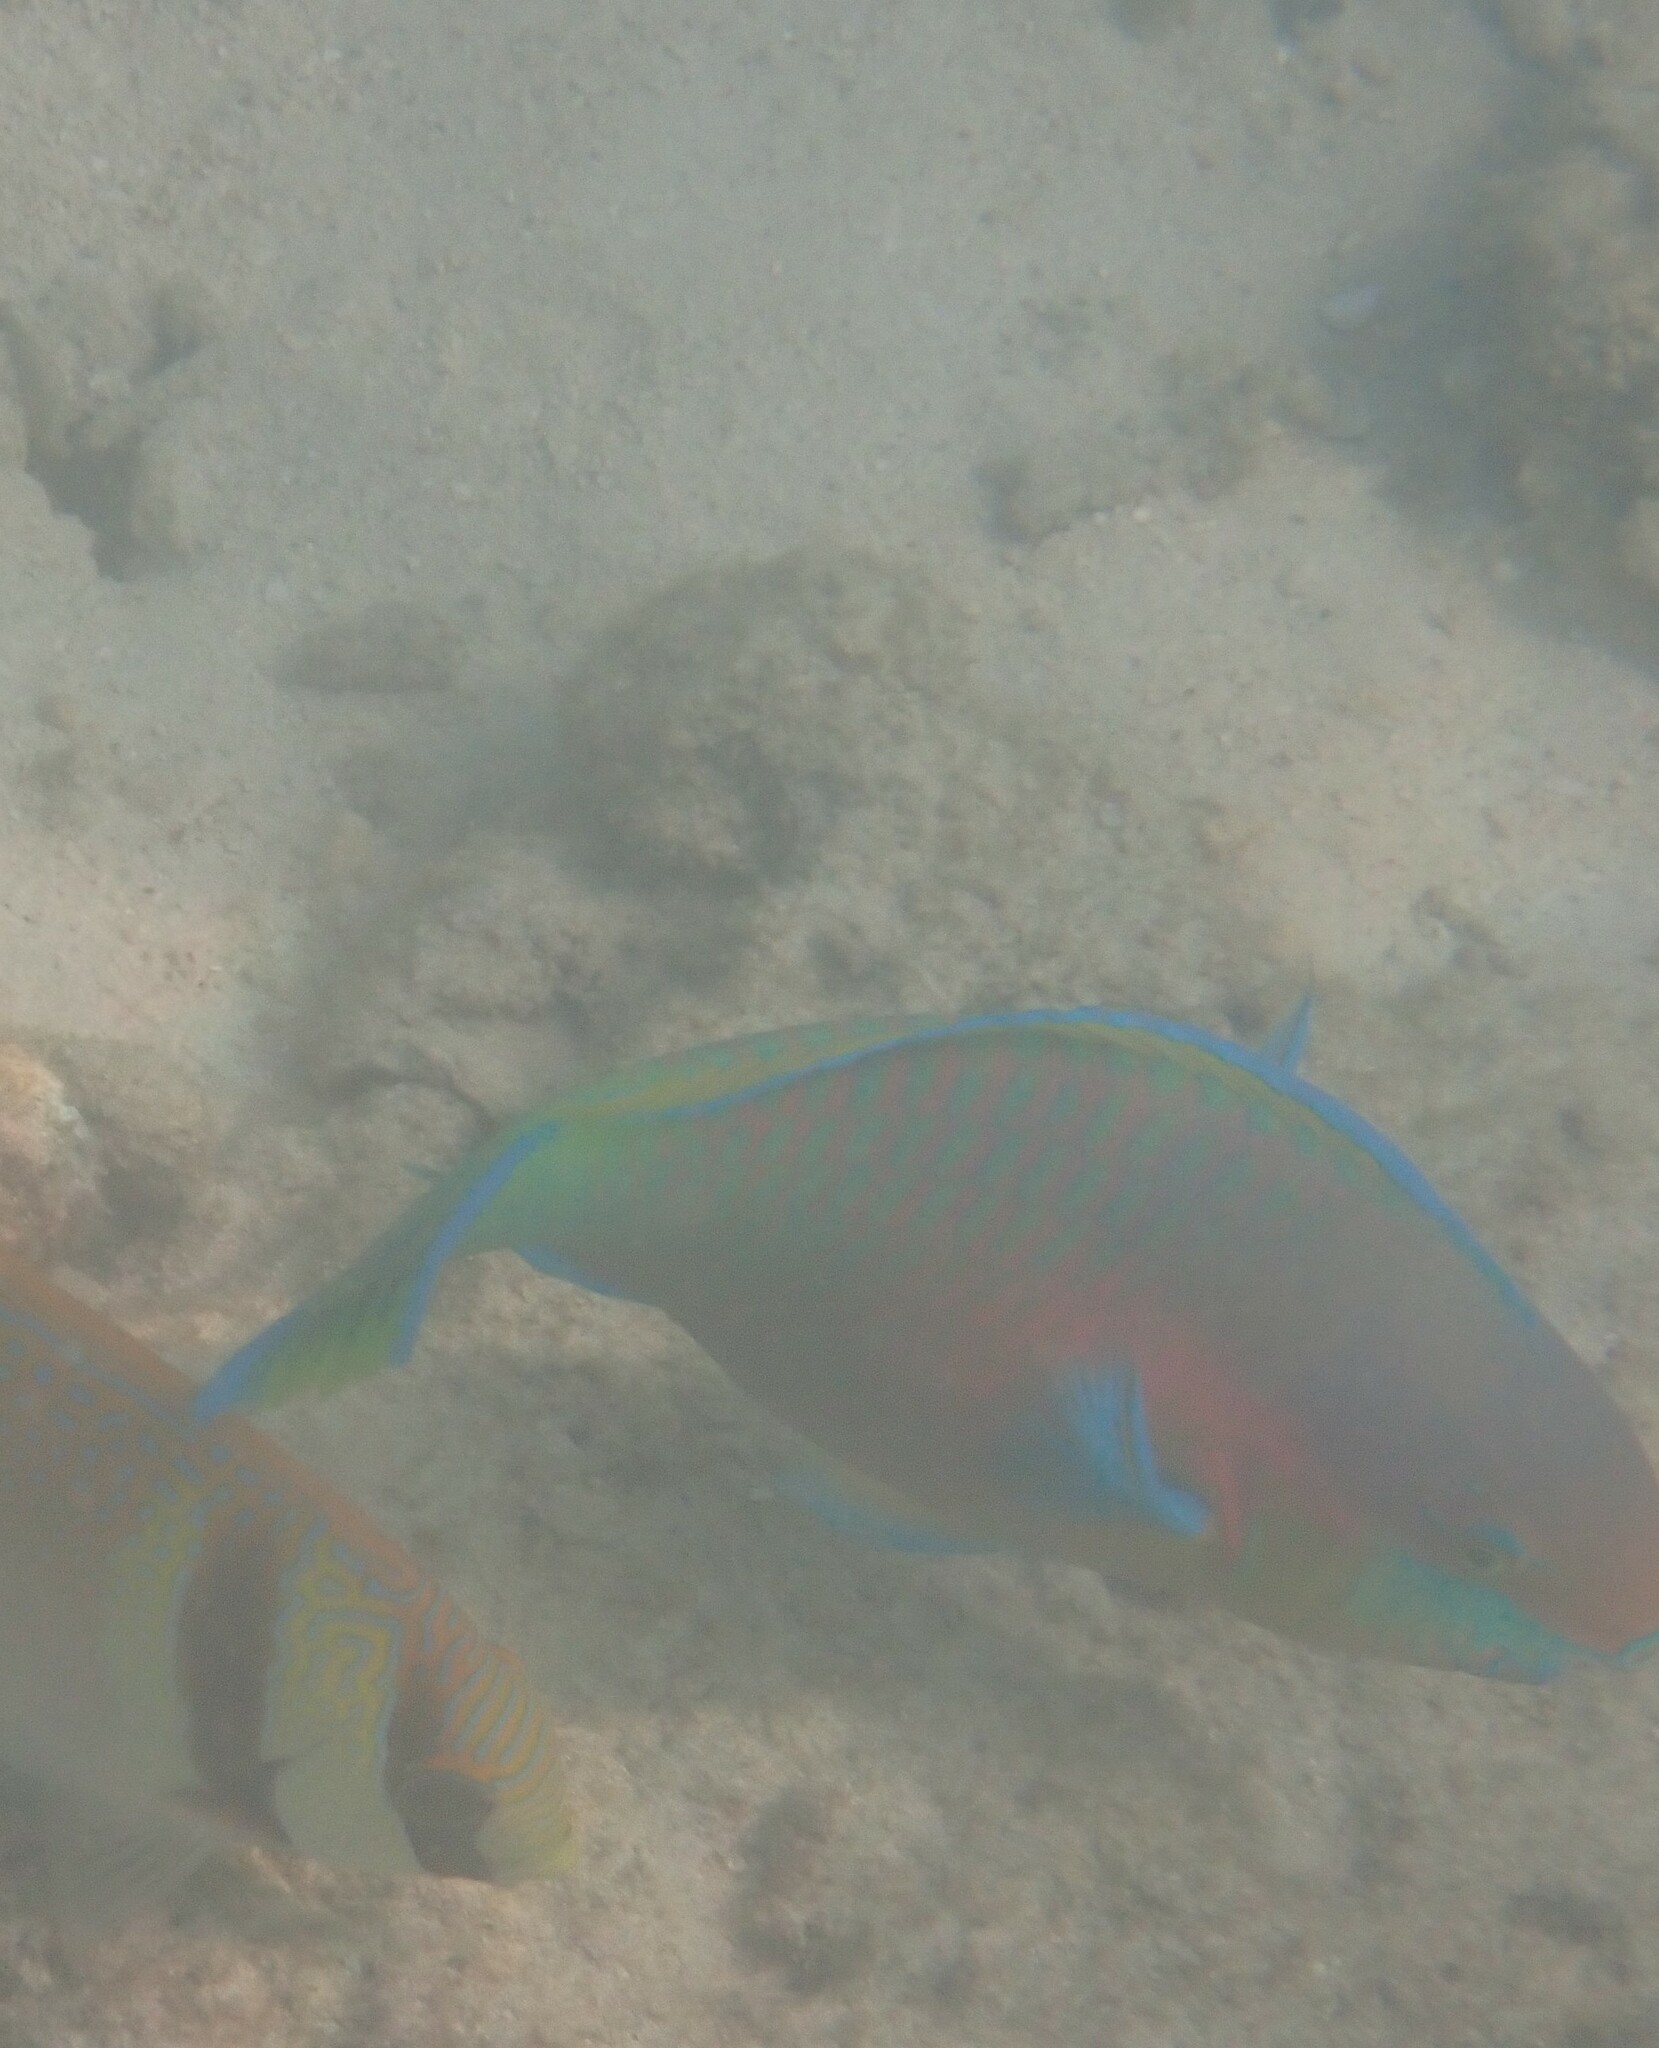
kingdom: Animalia
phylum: Chordata
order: Perciformes
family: Scaridae
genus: Scarus
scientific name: Scarus quoyi
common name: Quoy's parrotfish
